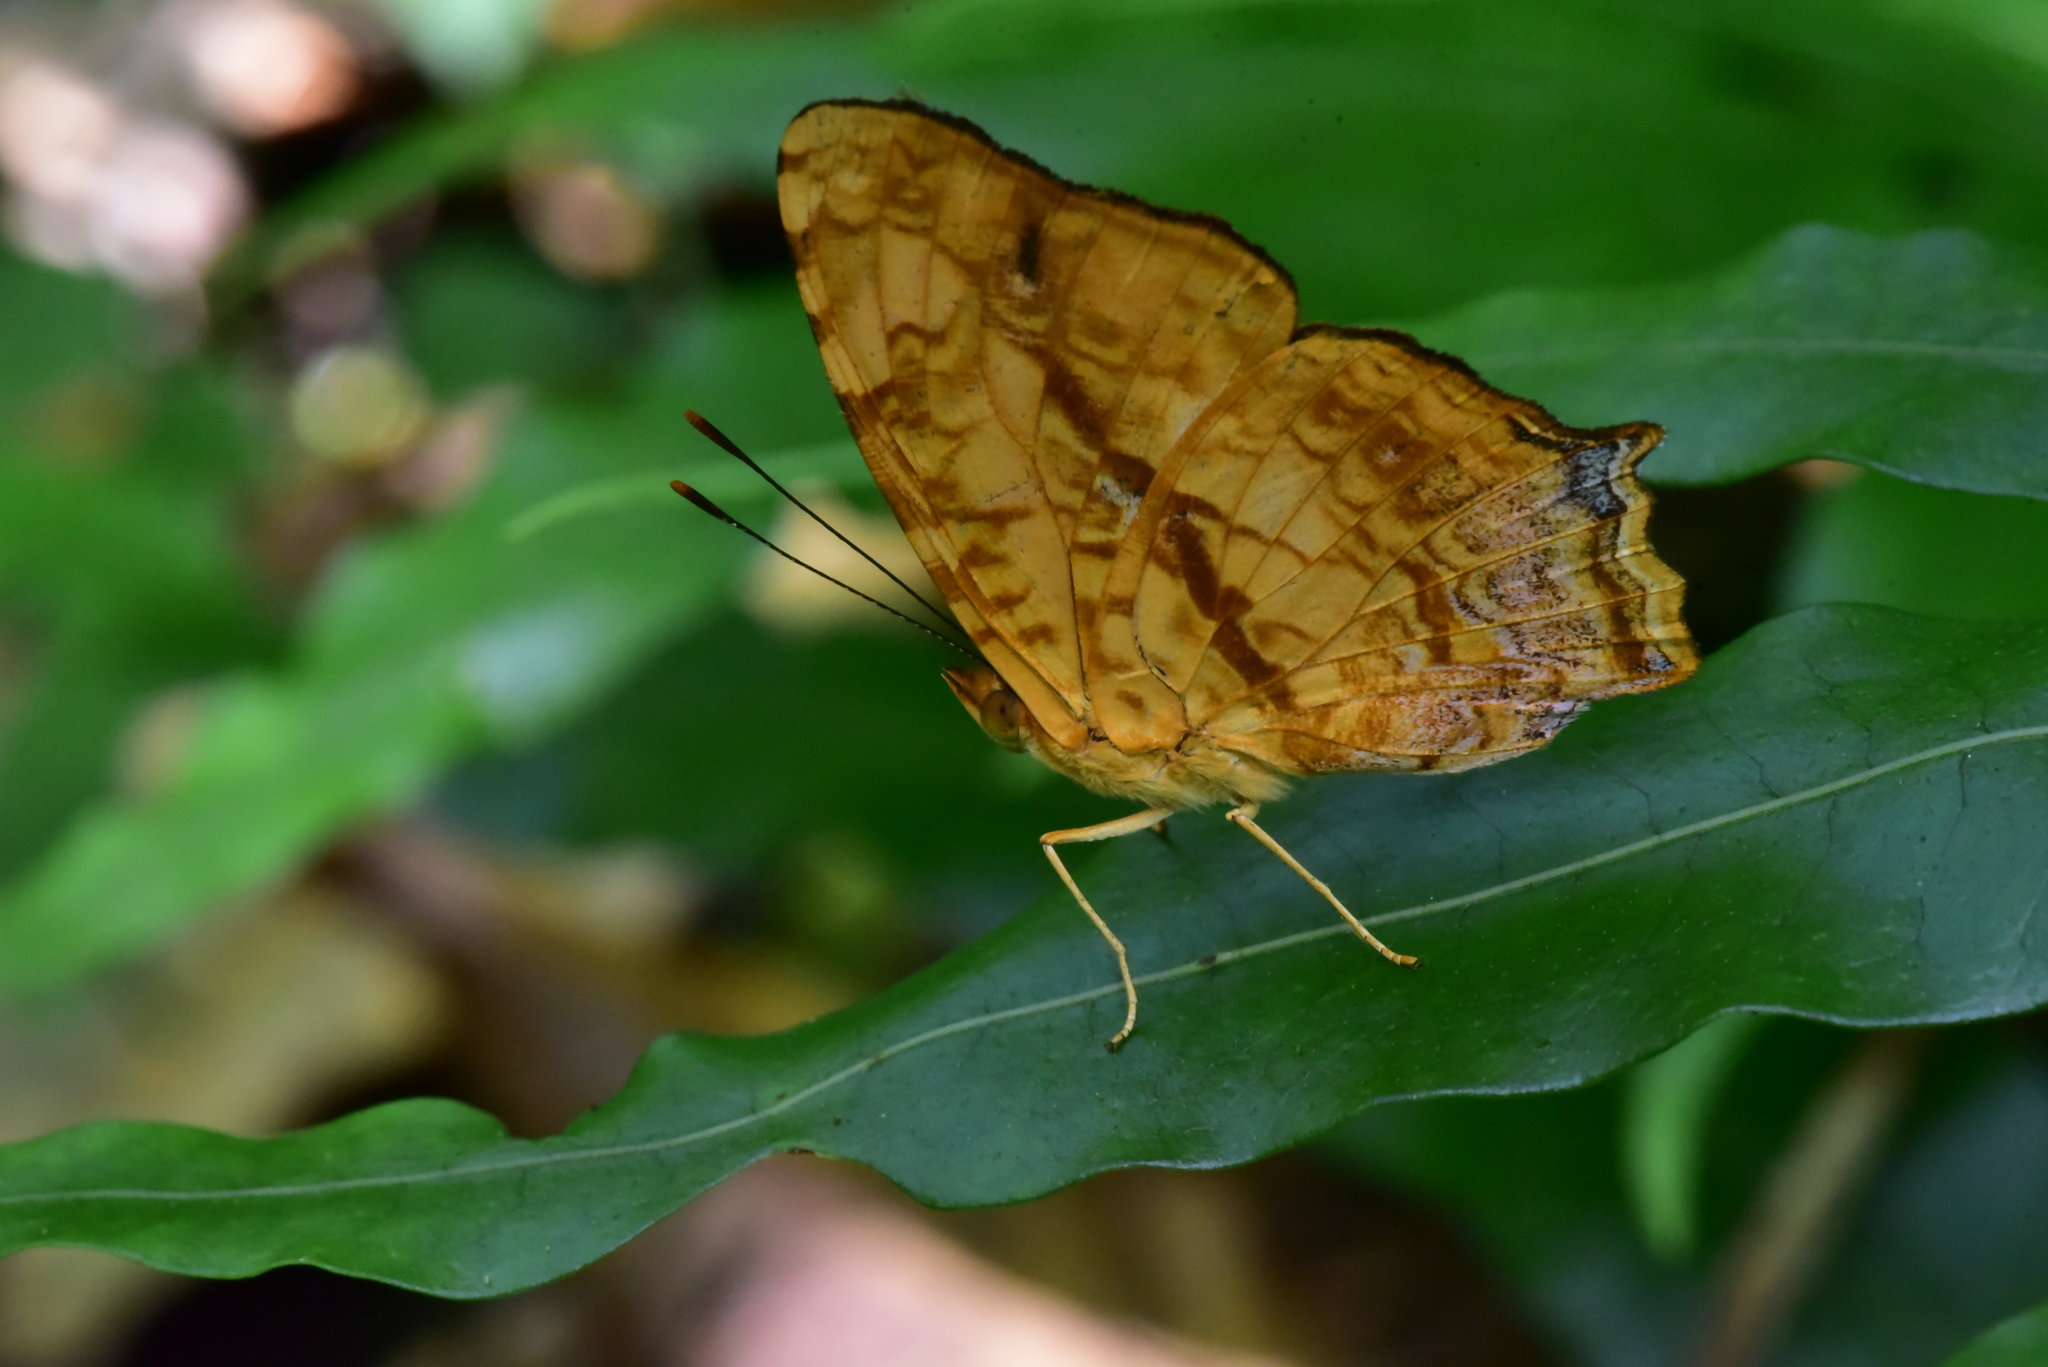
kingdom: Animalia
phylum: Arthropoda
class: Insecta
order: Lepidoptera
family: Nymphalidae
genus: Symbrenthia
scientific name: Symbrenthia hypselis
